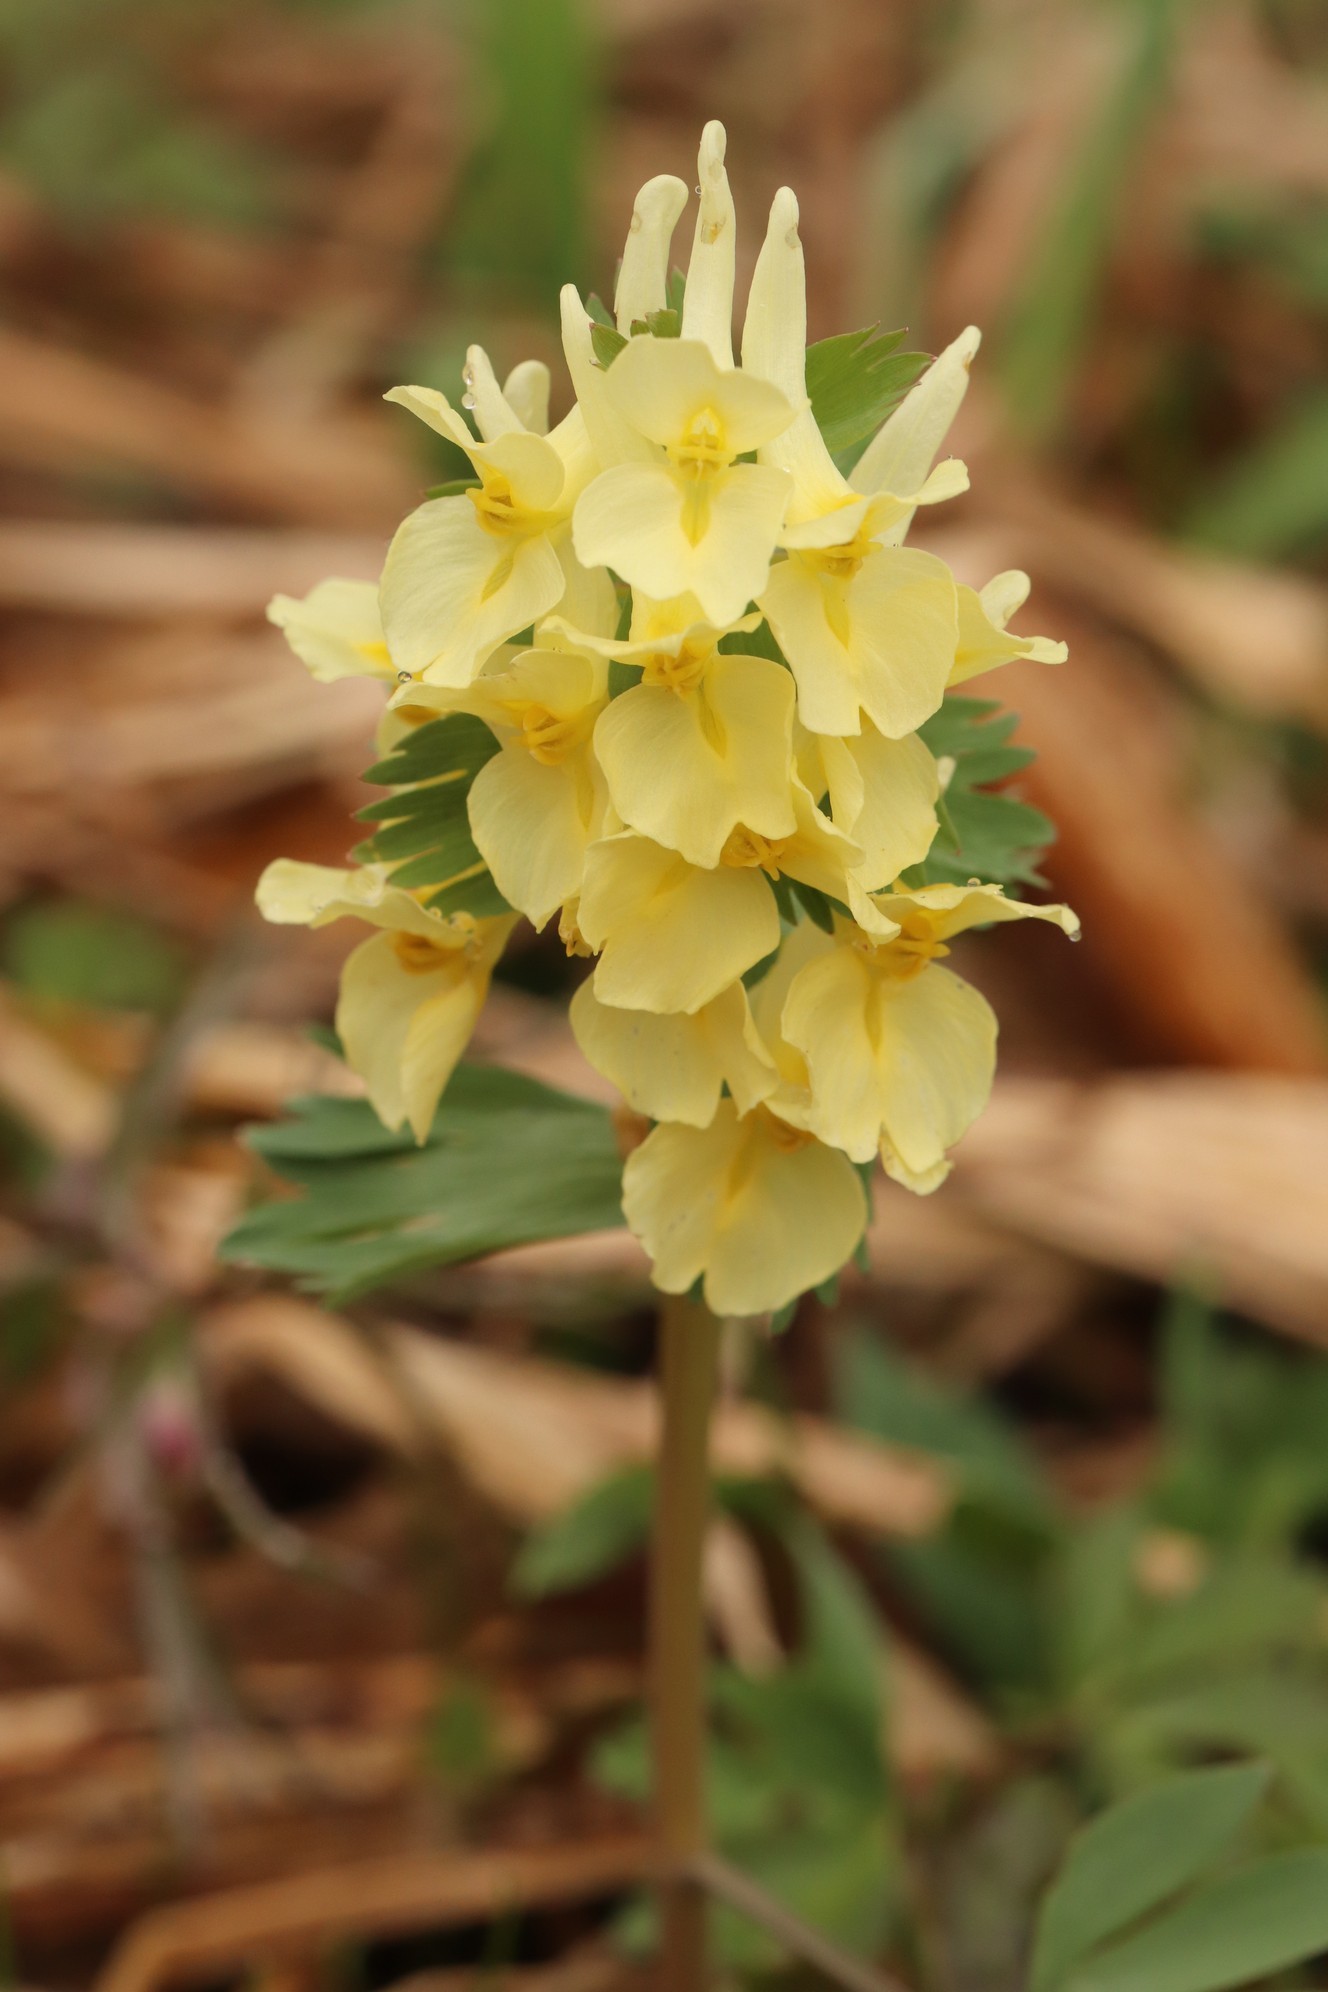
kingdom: Plantae
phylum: Tracheophyta
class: Magnoliopsida
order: Ranunculales
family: Papaveraceae
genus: Corydalis
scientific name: Corydalis bracteata
